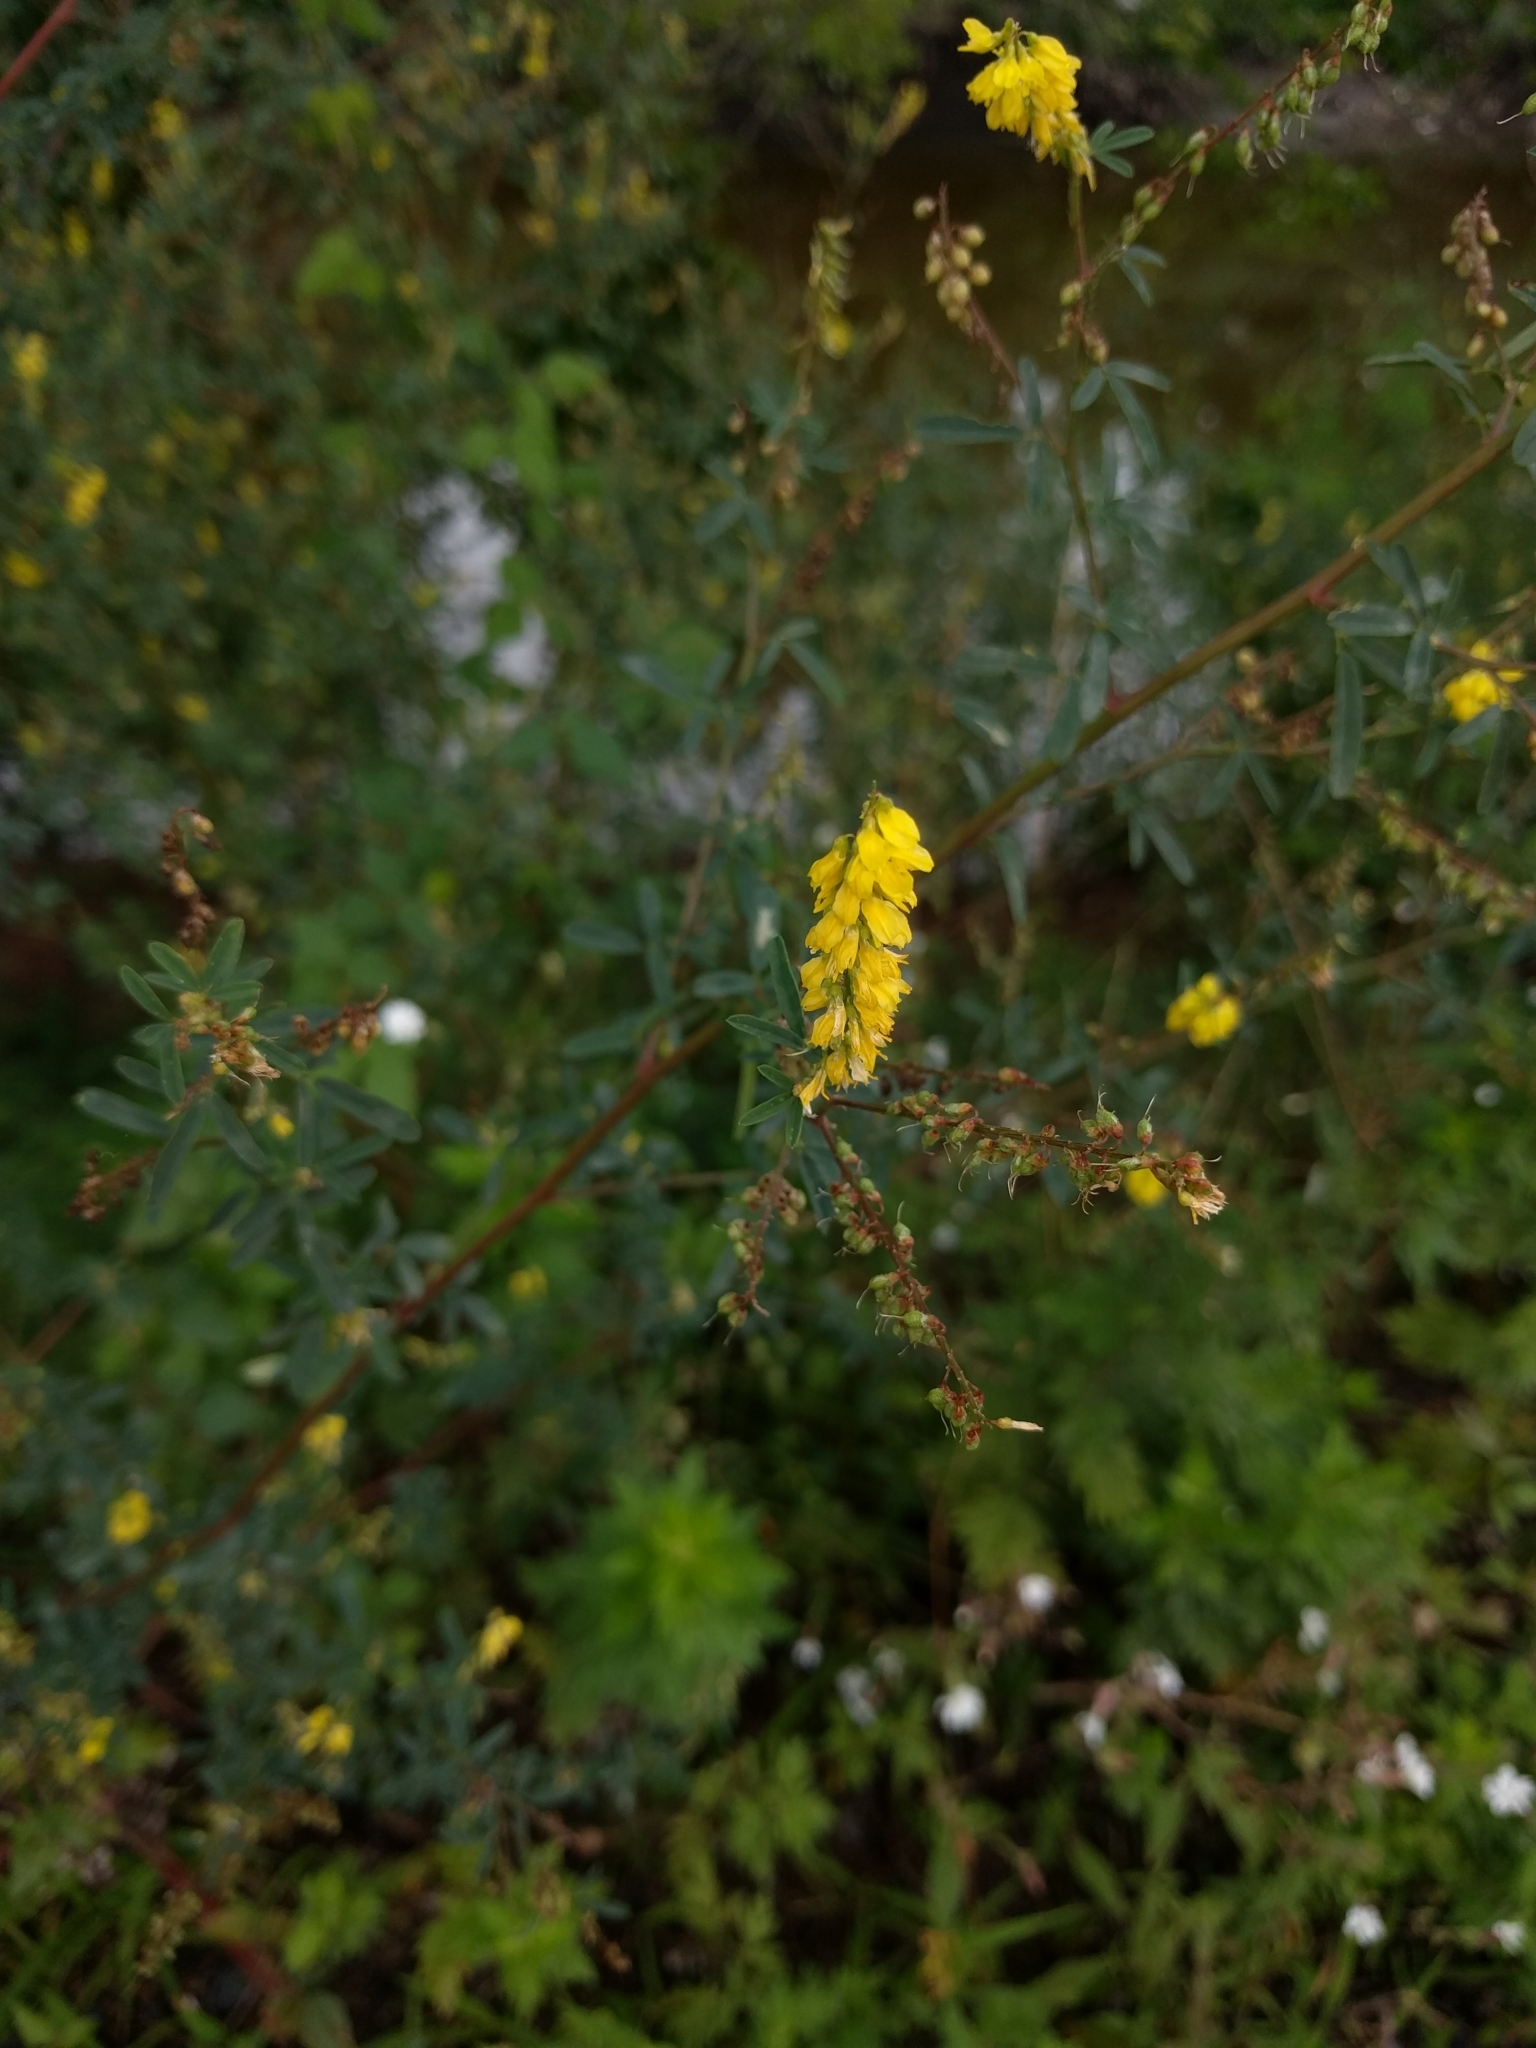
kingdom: Plantae
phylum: Tracheophyta
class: Magnoliopsida
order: Fabales
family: Fabaceae
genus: Melilotus
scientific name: Melilotus officinalis
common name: Sweetclover
